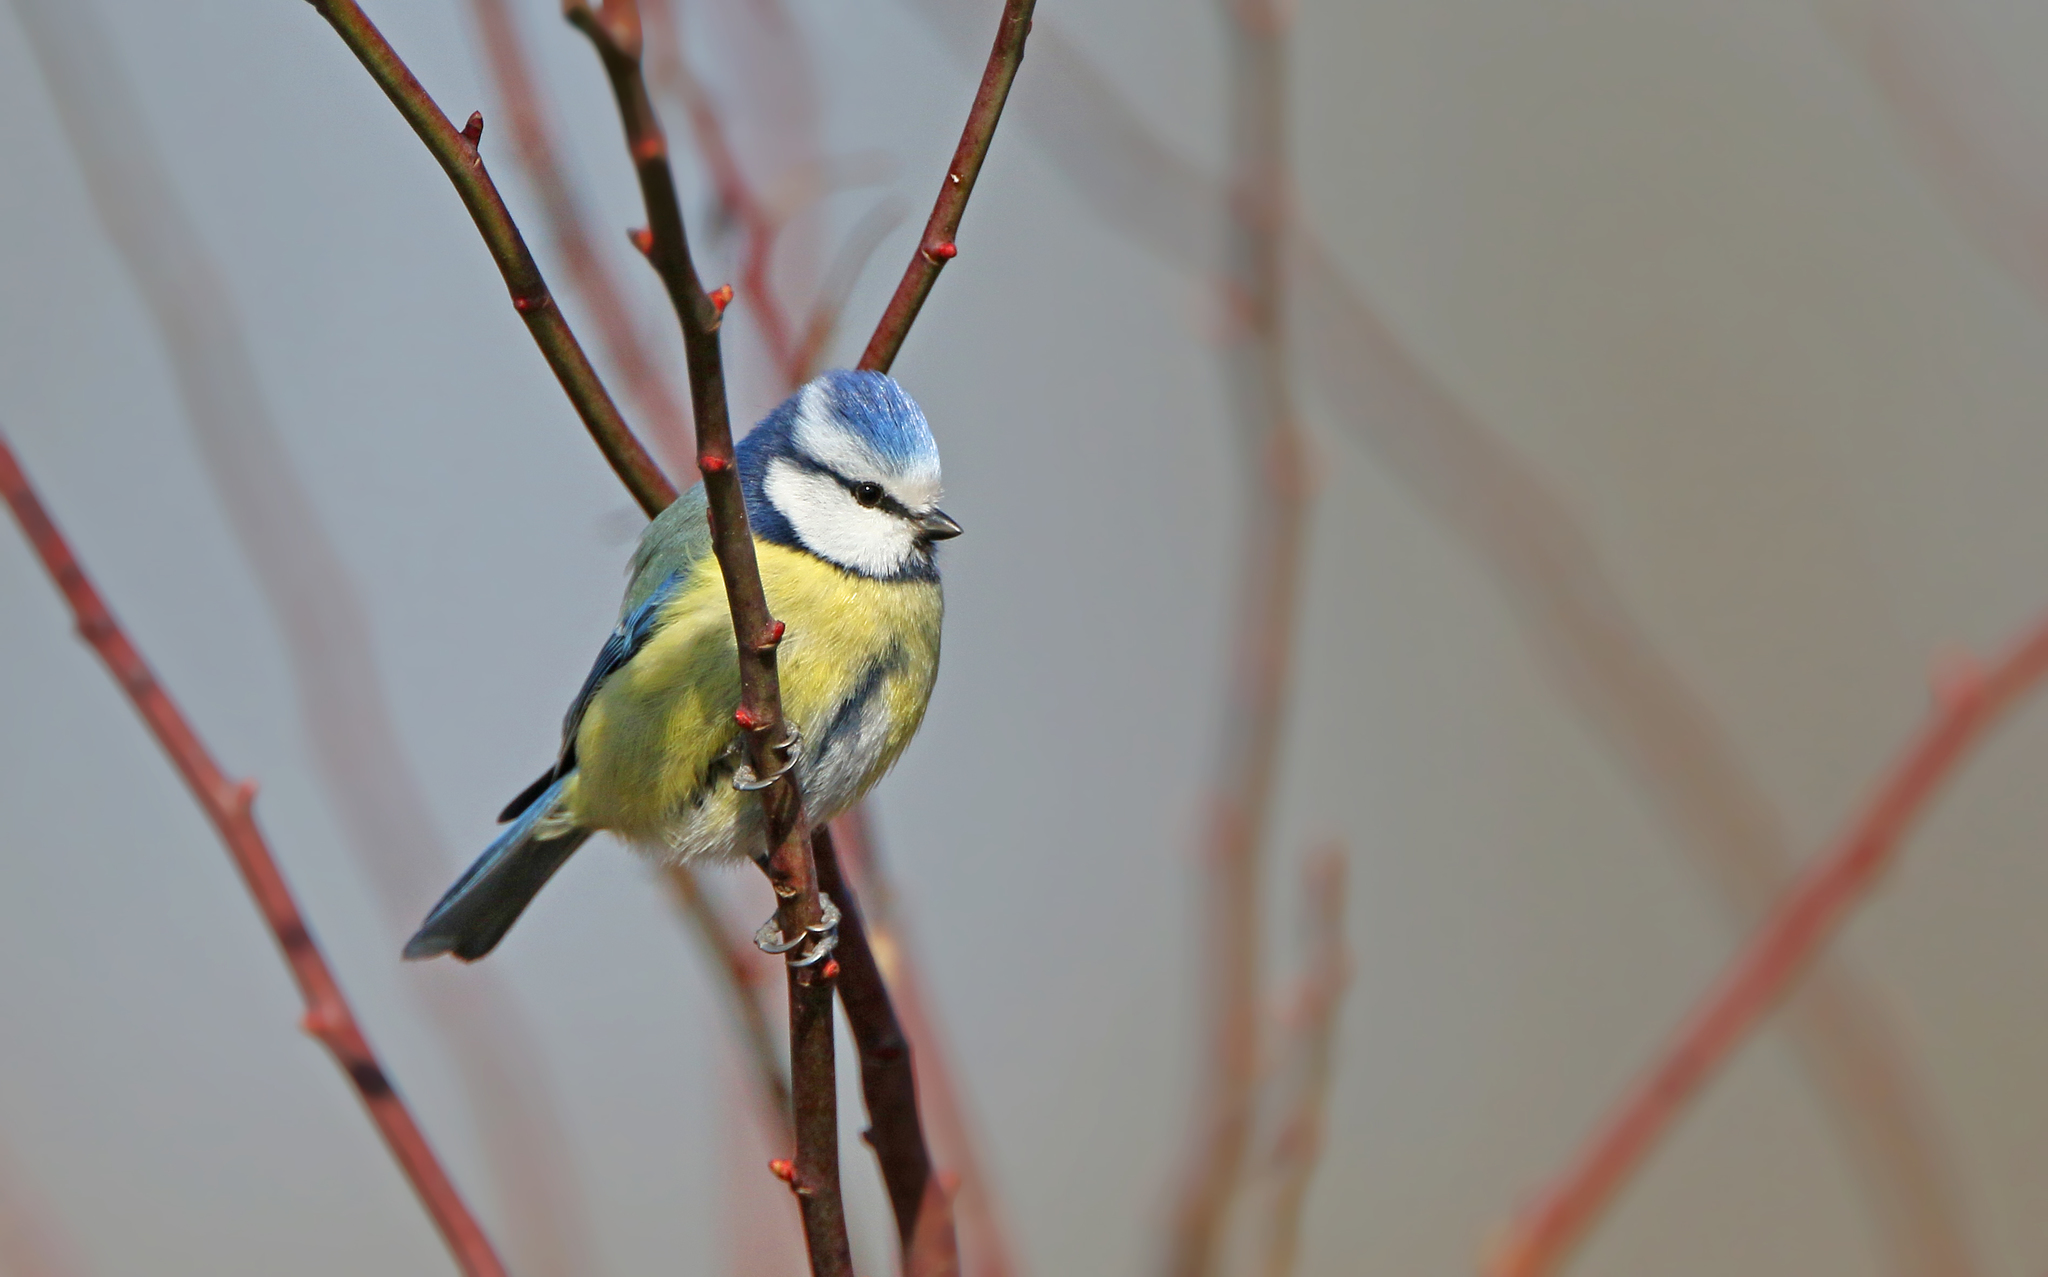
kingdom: Animalia
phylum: Chordata
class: Aves
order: Passeriformes
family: Paridae
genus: Cyanistes
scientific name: Cyanistes caeruleus
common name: Eurasian blue tit
